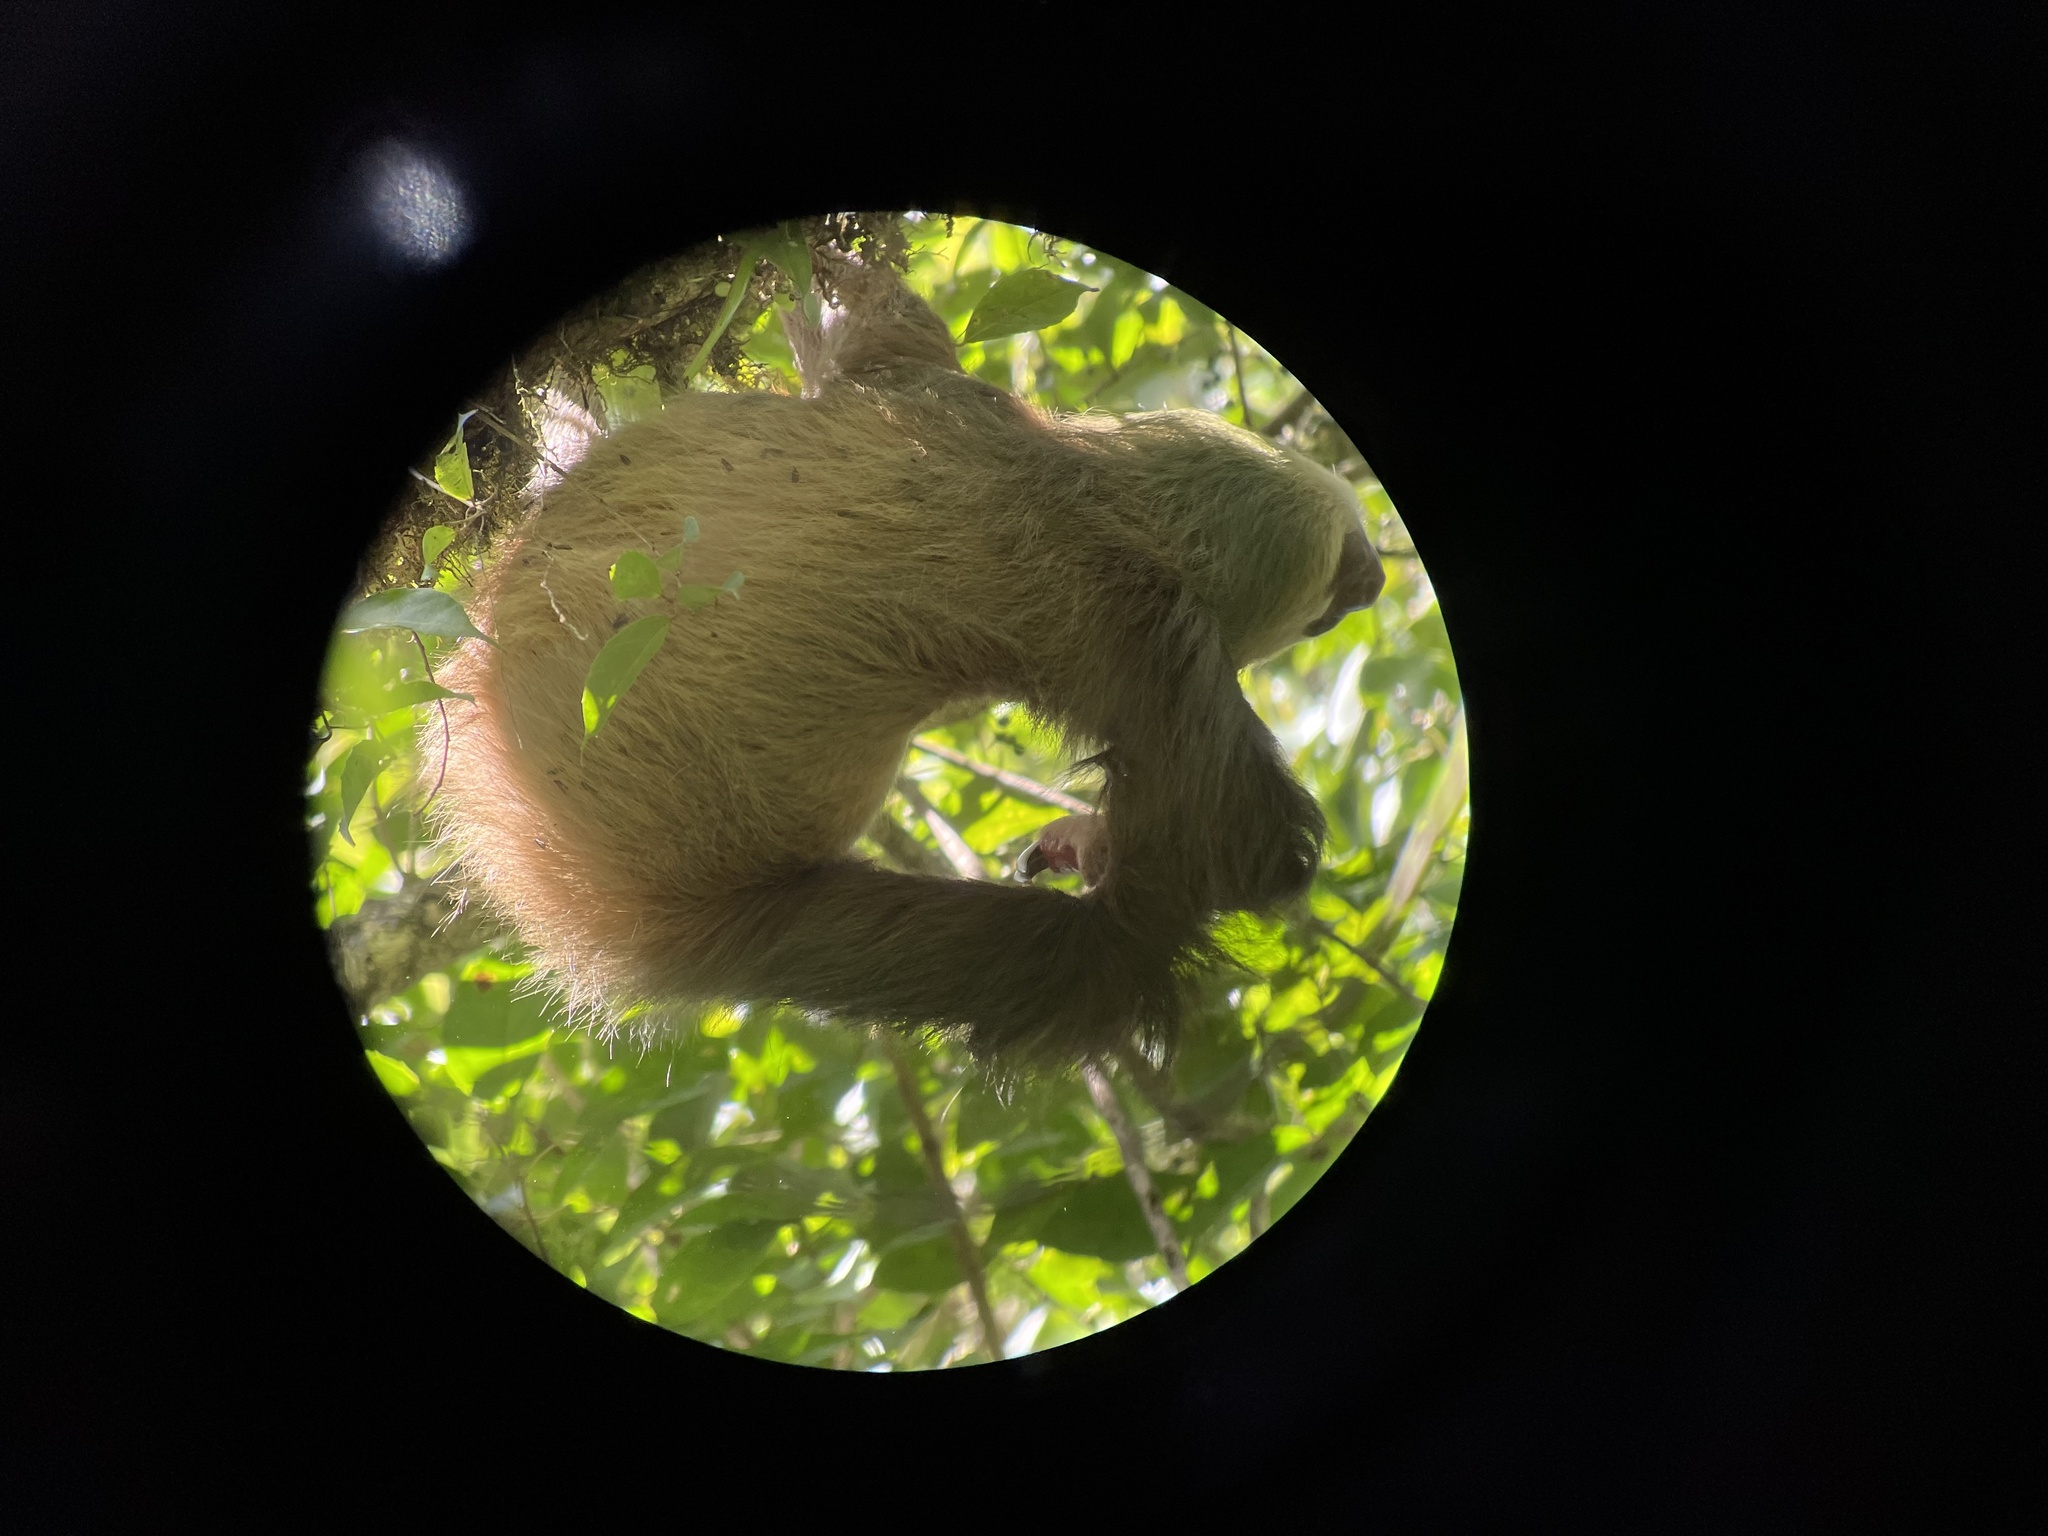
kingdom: Animalia
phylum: Chordata
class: Mammalia
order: Pilosa
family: Megalonychidae
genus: Choloepus
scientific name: Choloepus hoffmanni
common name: Hoffmann's two-toed sloth
